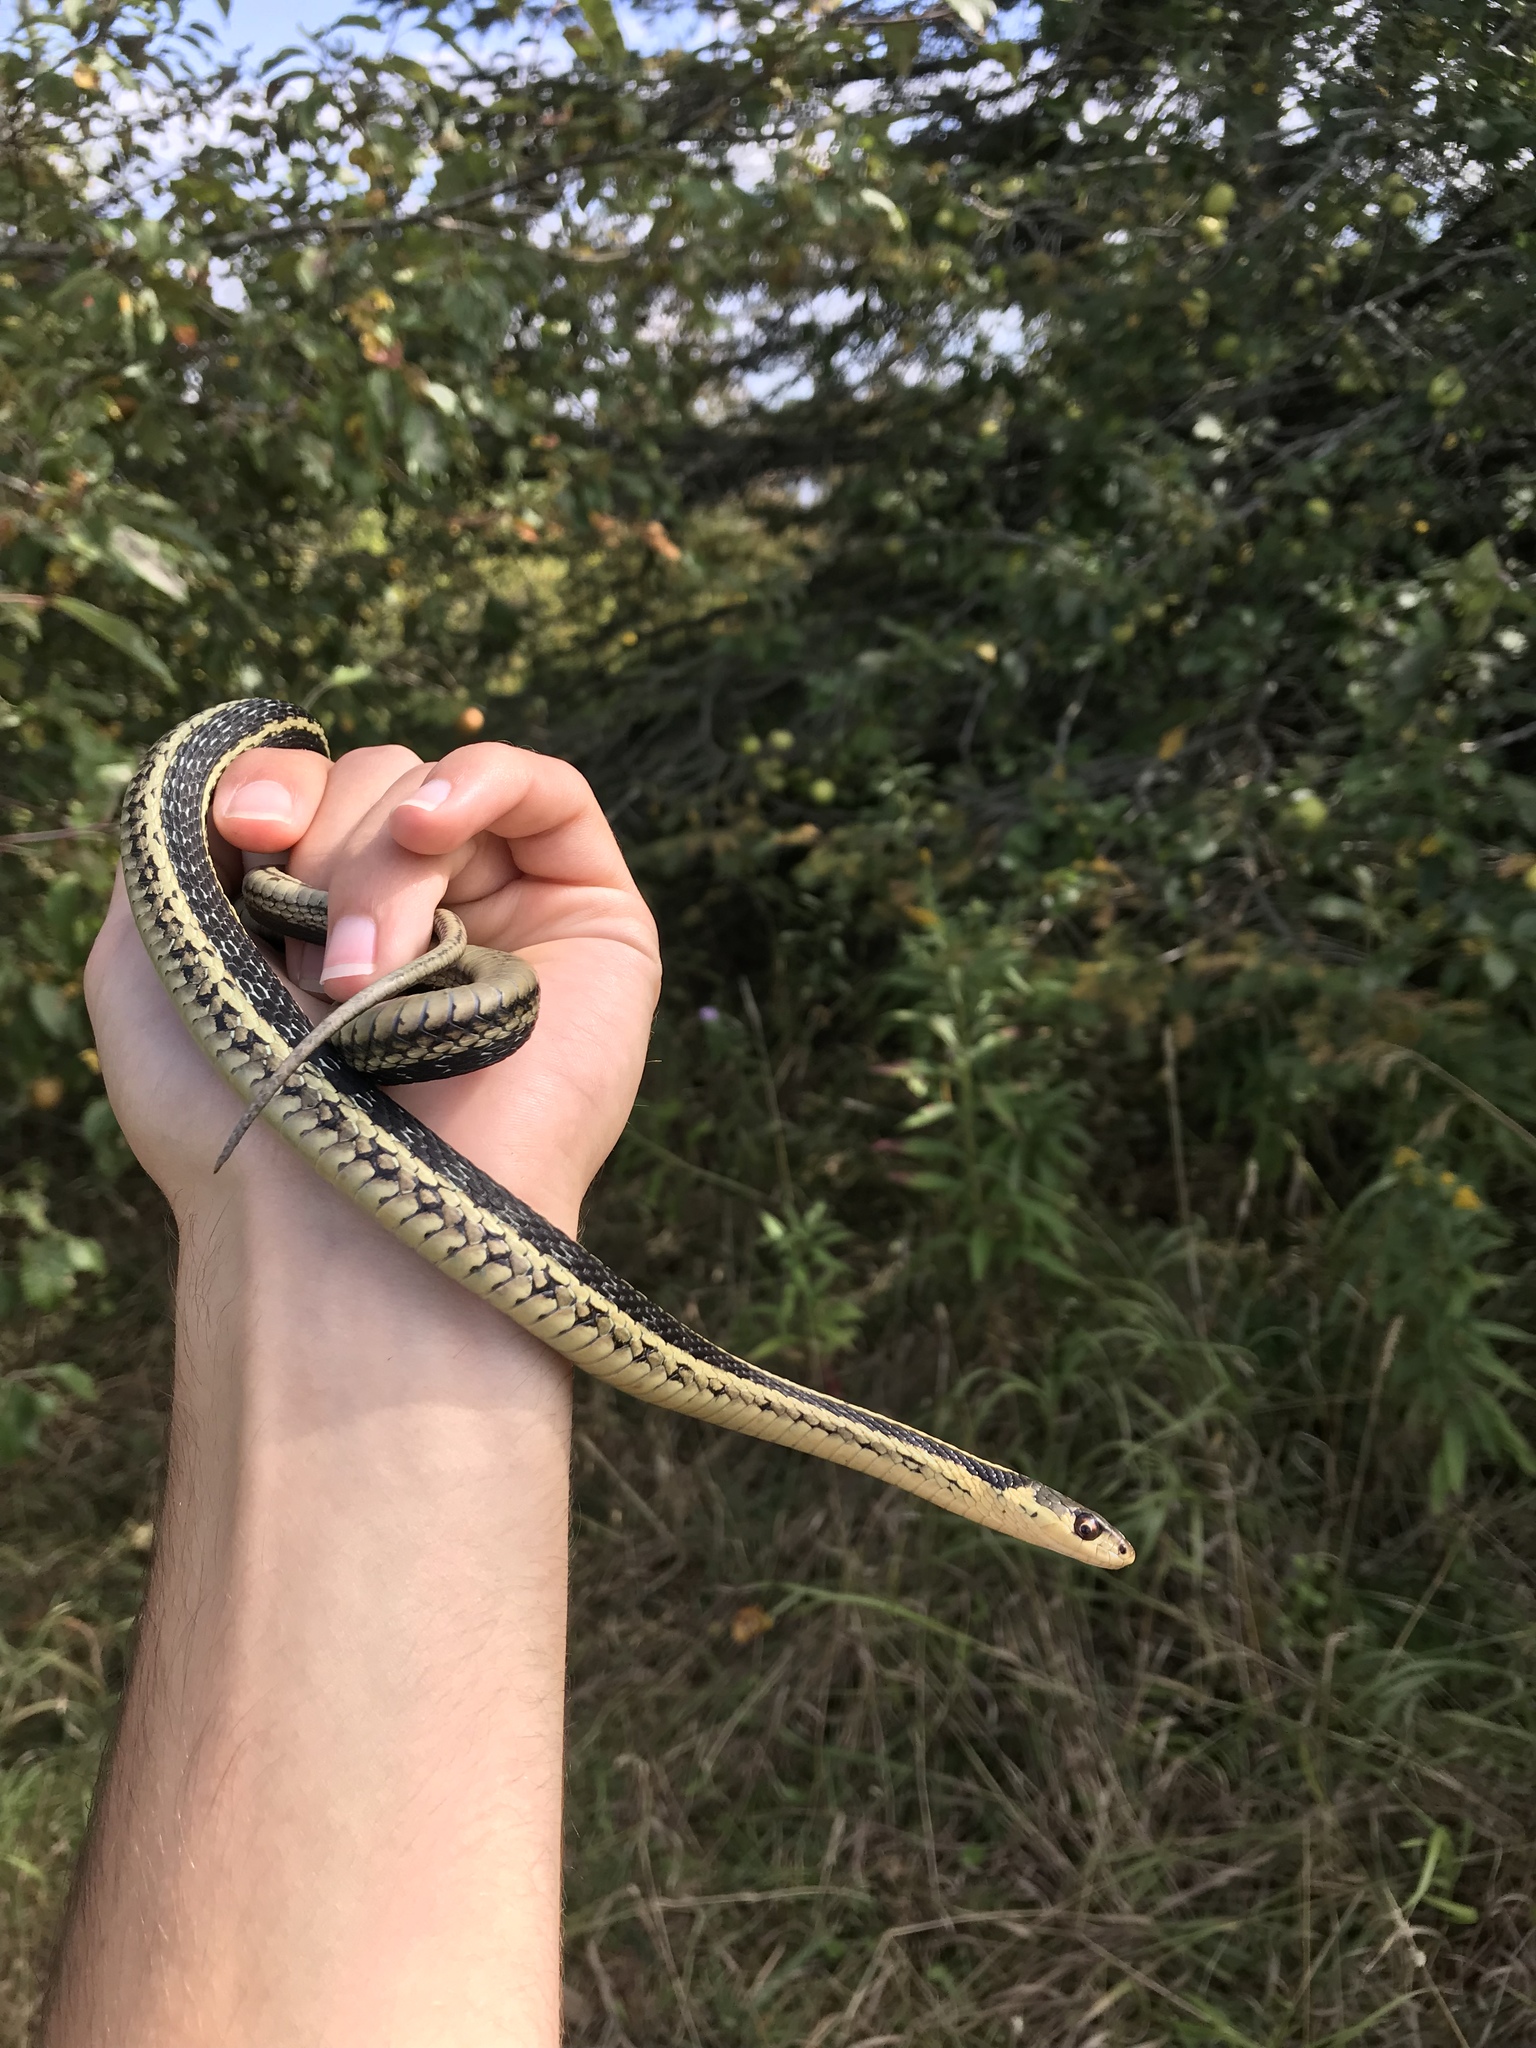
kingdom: Animalia
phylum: Chordata
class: Squamata
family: Colubridae
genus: Thamnophis
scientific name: Thamnophis sirtalis
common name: Common garter snake
